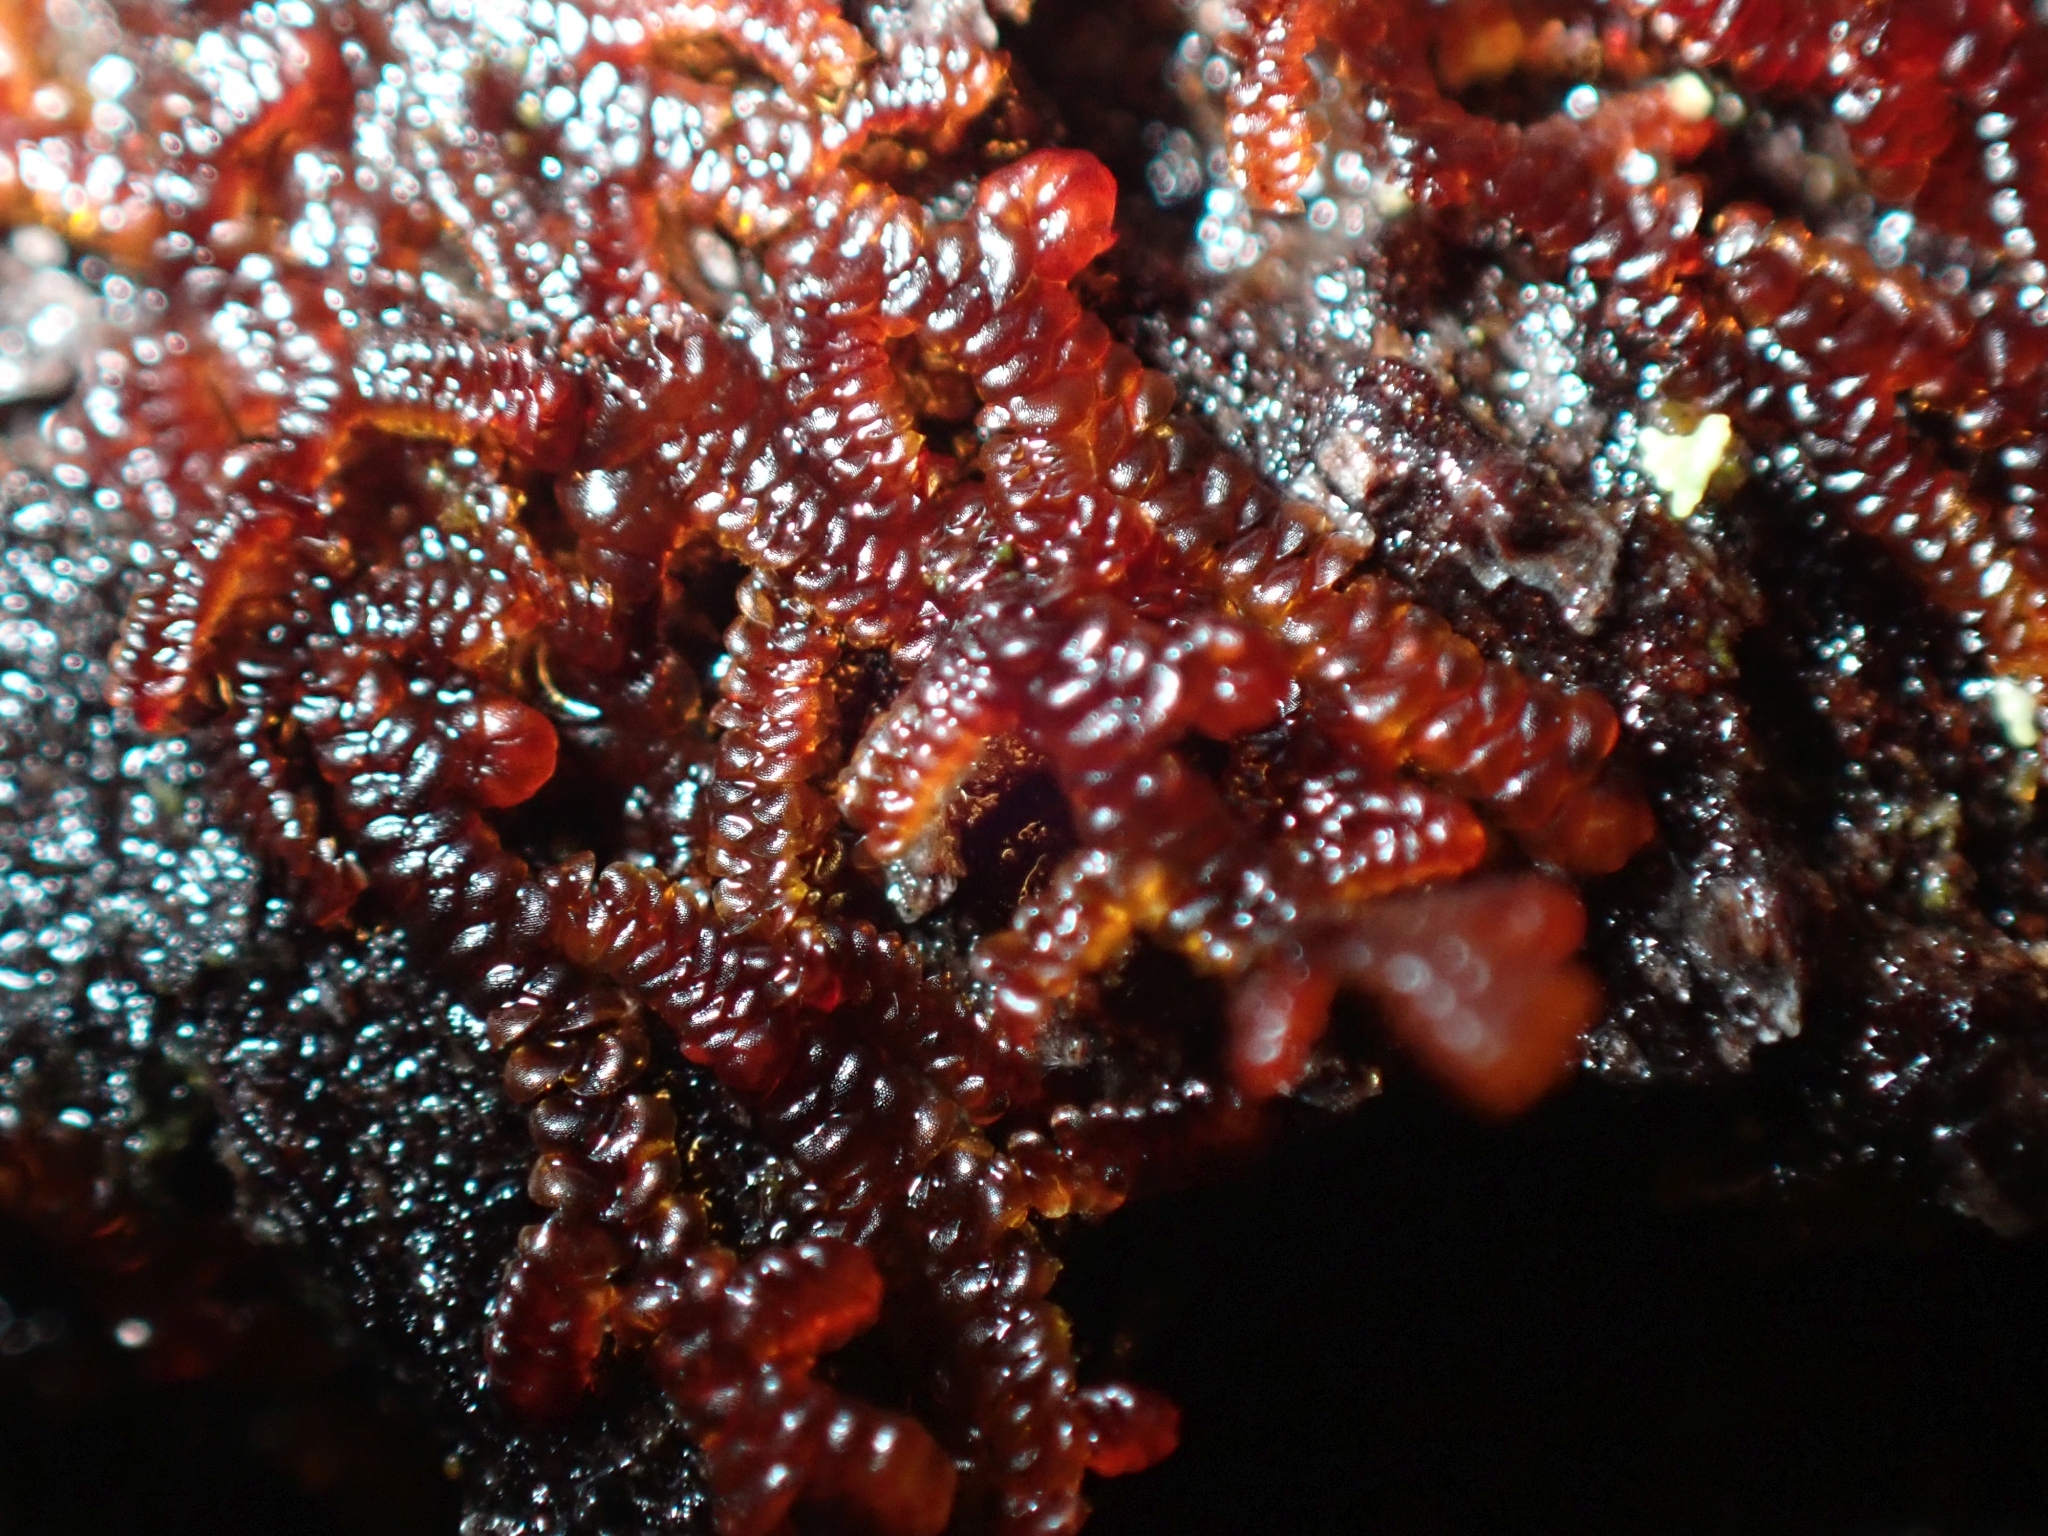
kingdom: Plantae
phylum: Marchantiophyta
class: Jungermanniopsida
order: Porellales
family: Frullaniaceae
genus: Frullania
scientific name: Frullania nisquallensis
